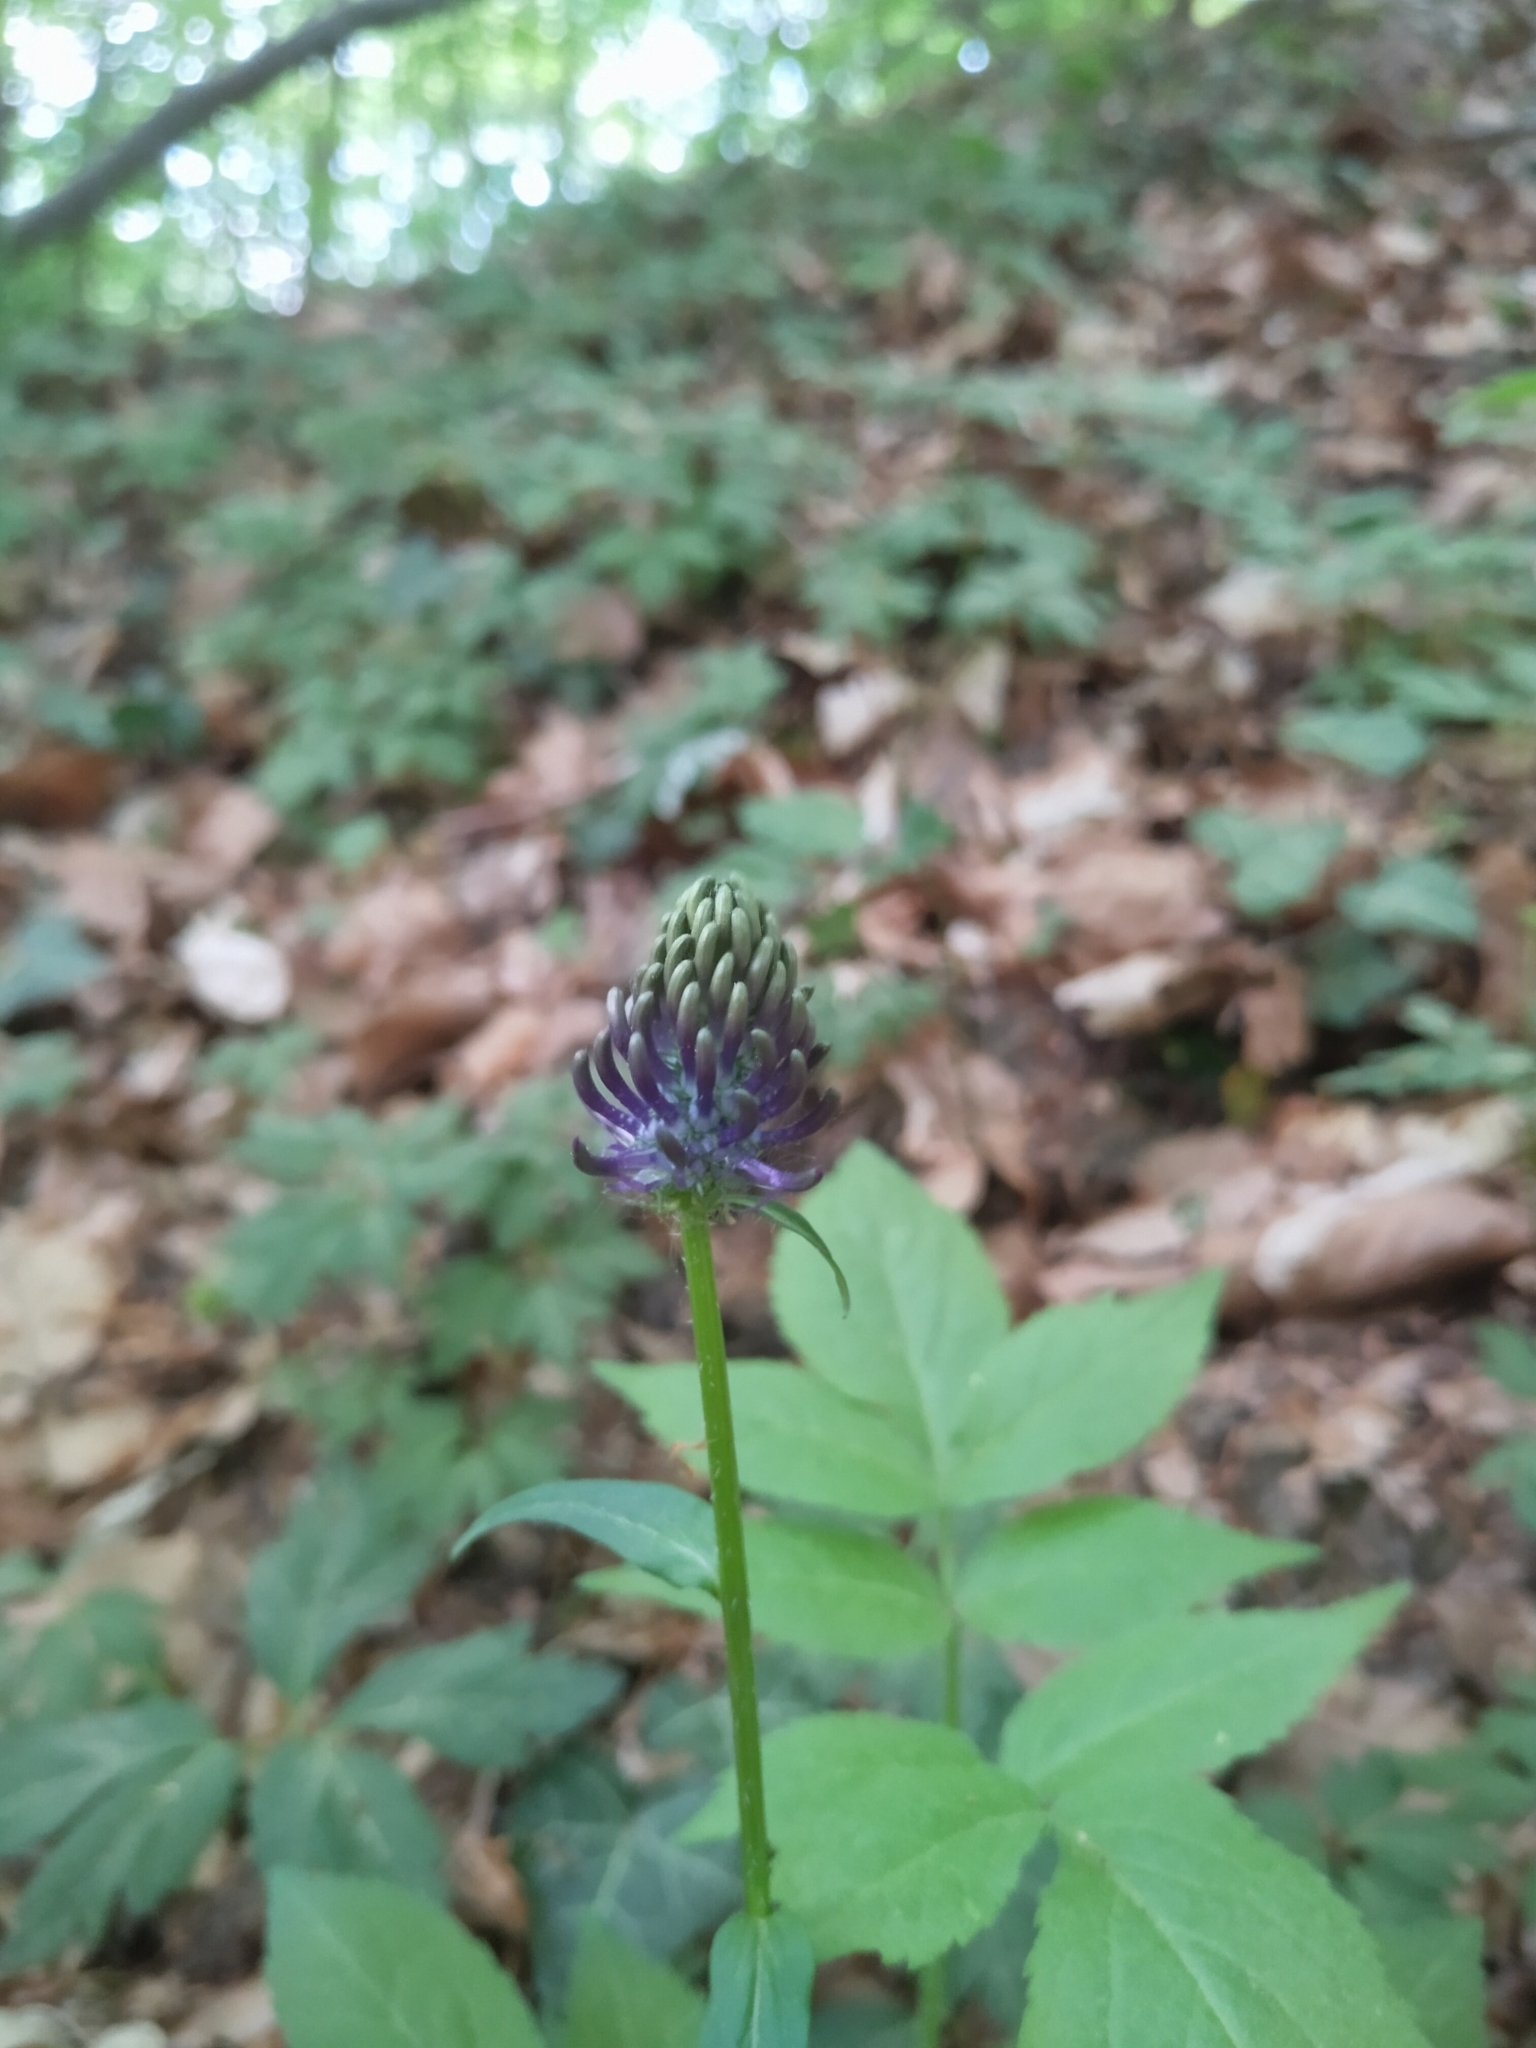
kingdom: Plantae
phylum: Tracheophyta
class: Magnoliopsida
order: Asterales
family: Campanulaceae
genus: Phyteuma
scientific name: Phyteuma nigrum
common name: Black rampion
